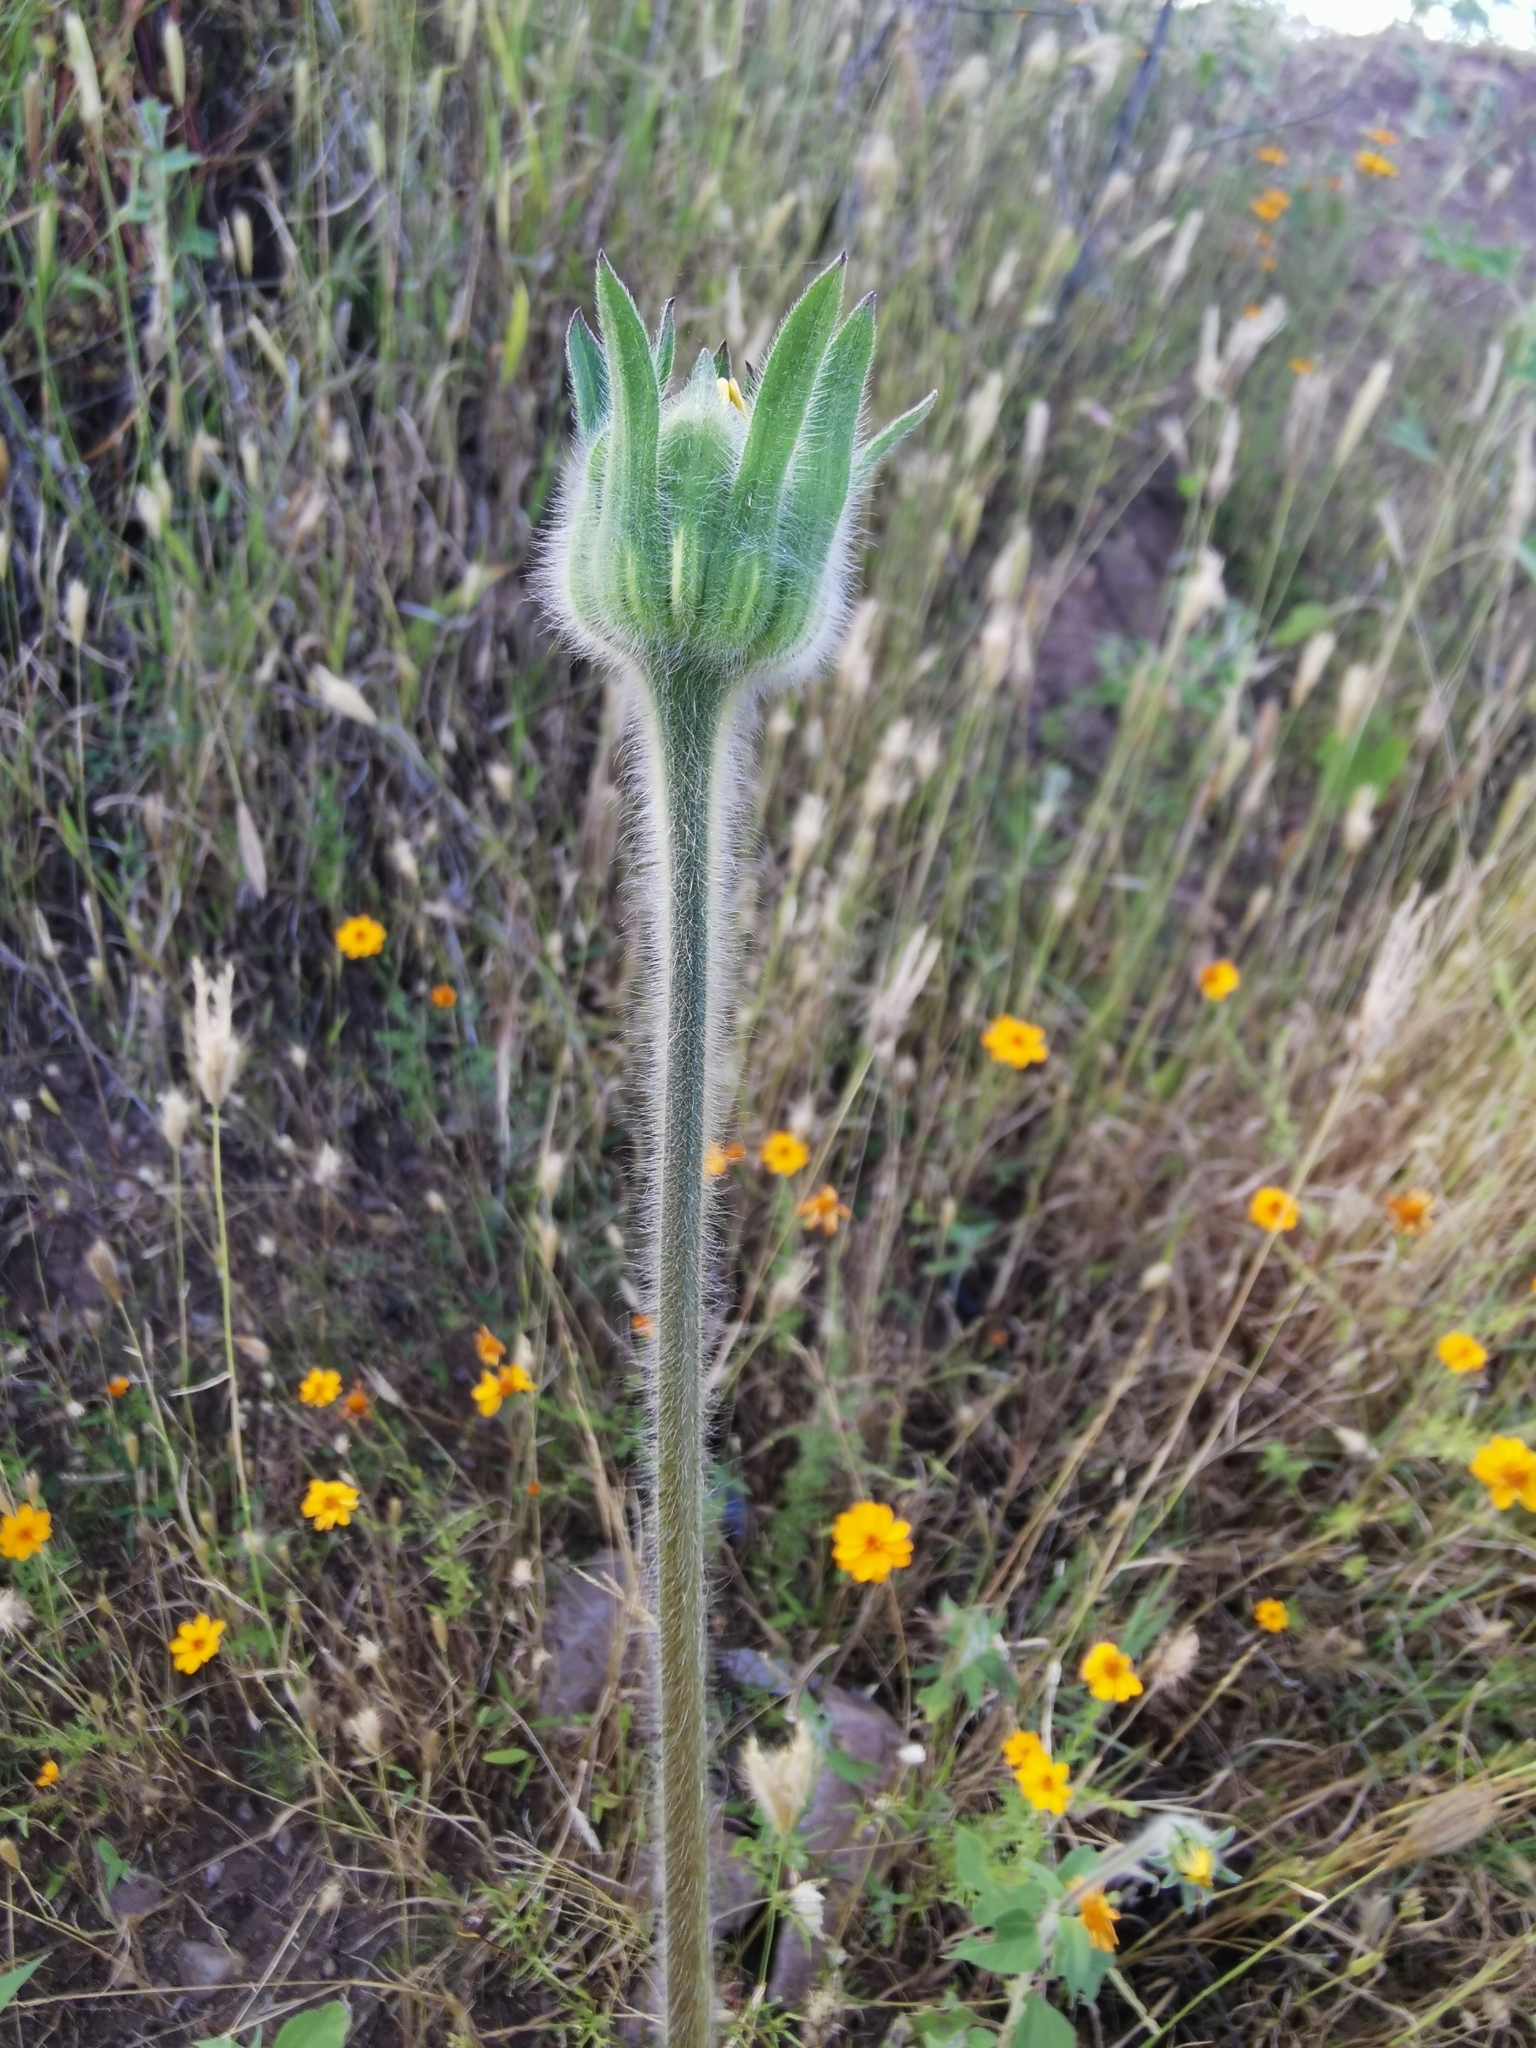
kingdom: Plantae
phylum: Tracheophyta
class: Magnoliopsida
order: Asterales
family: Asteraceae
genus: Tithonia
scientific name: Tithonia tubaeformis
